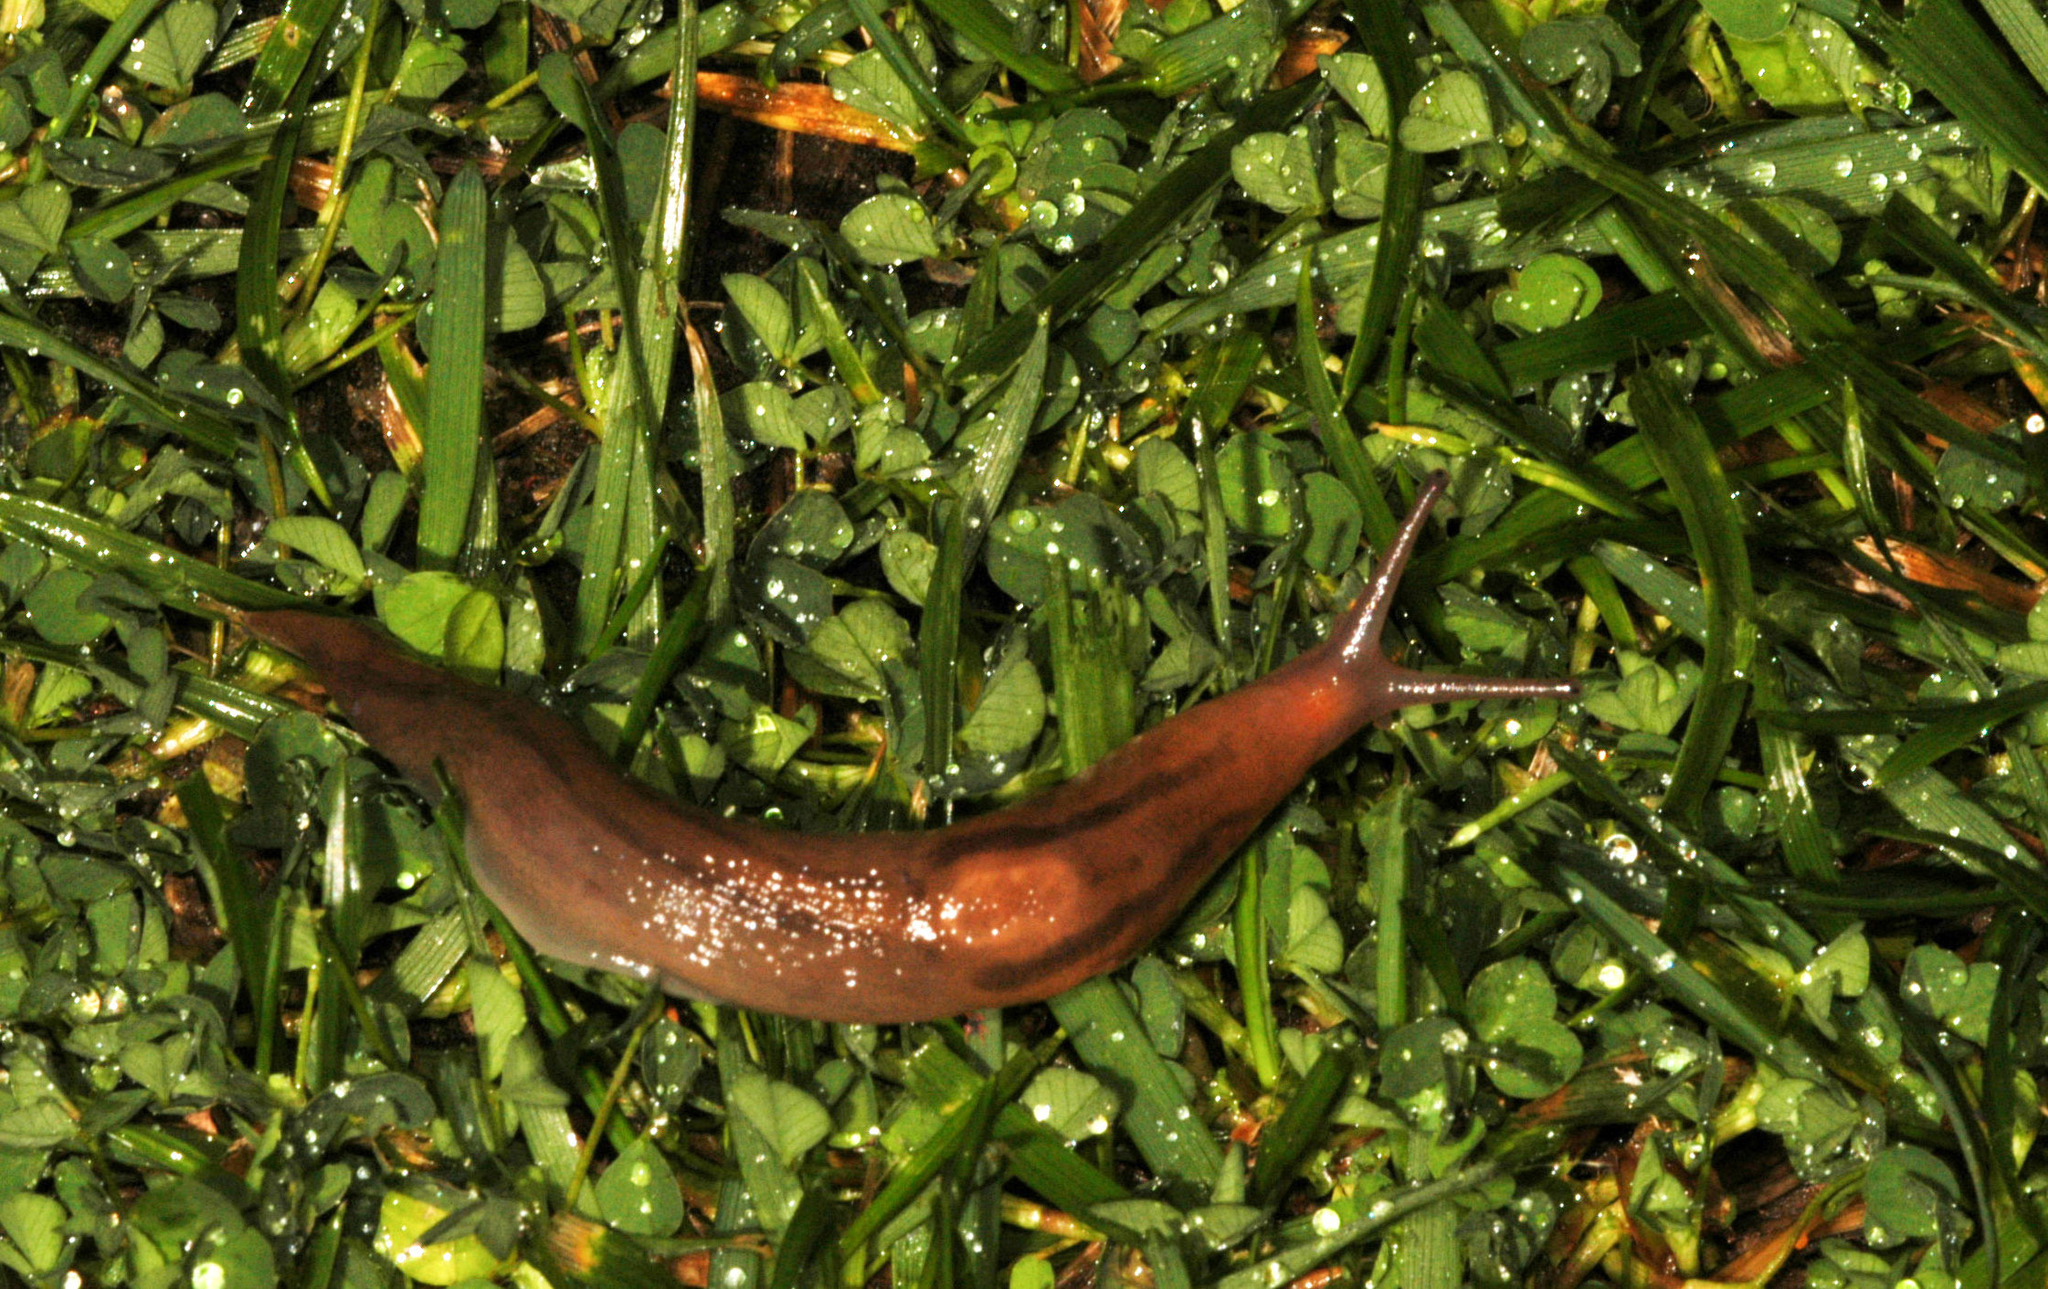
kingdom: Animalia
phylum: Mollusca
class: Gastropoda
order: Stylommatophora
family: Limacidae
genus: Ambigolimax
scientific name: Ambigolimax
